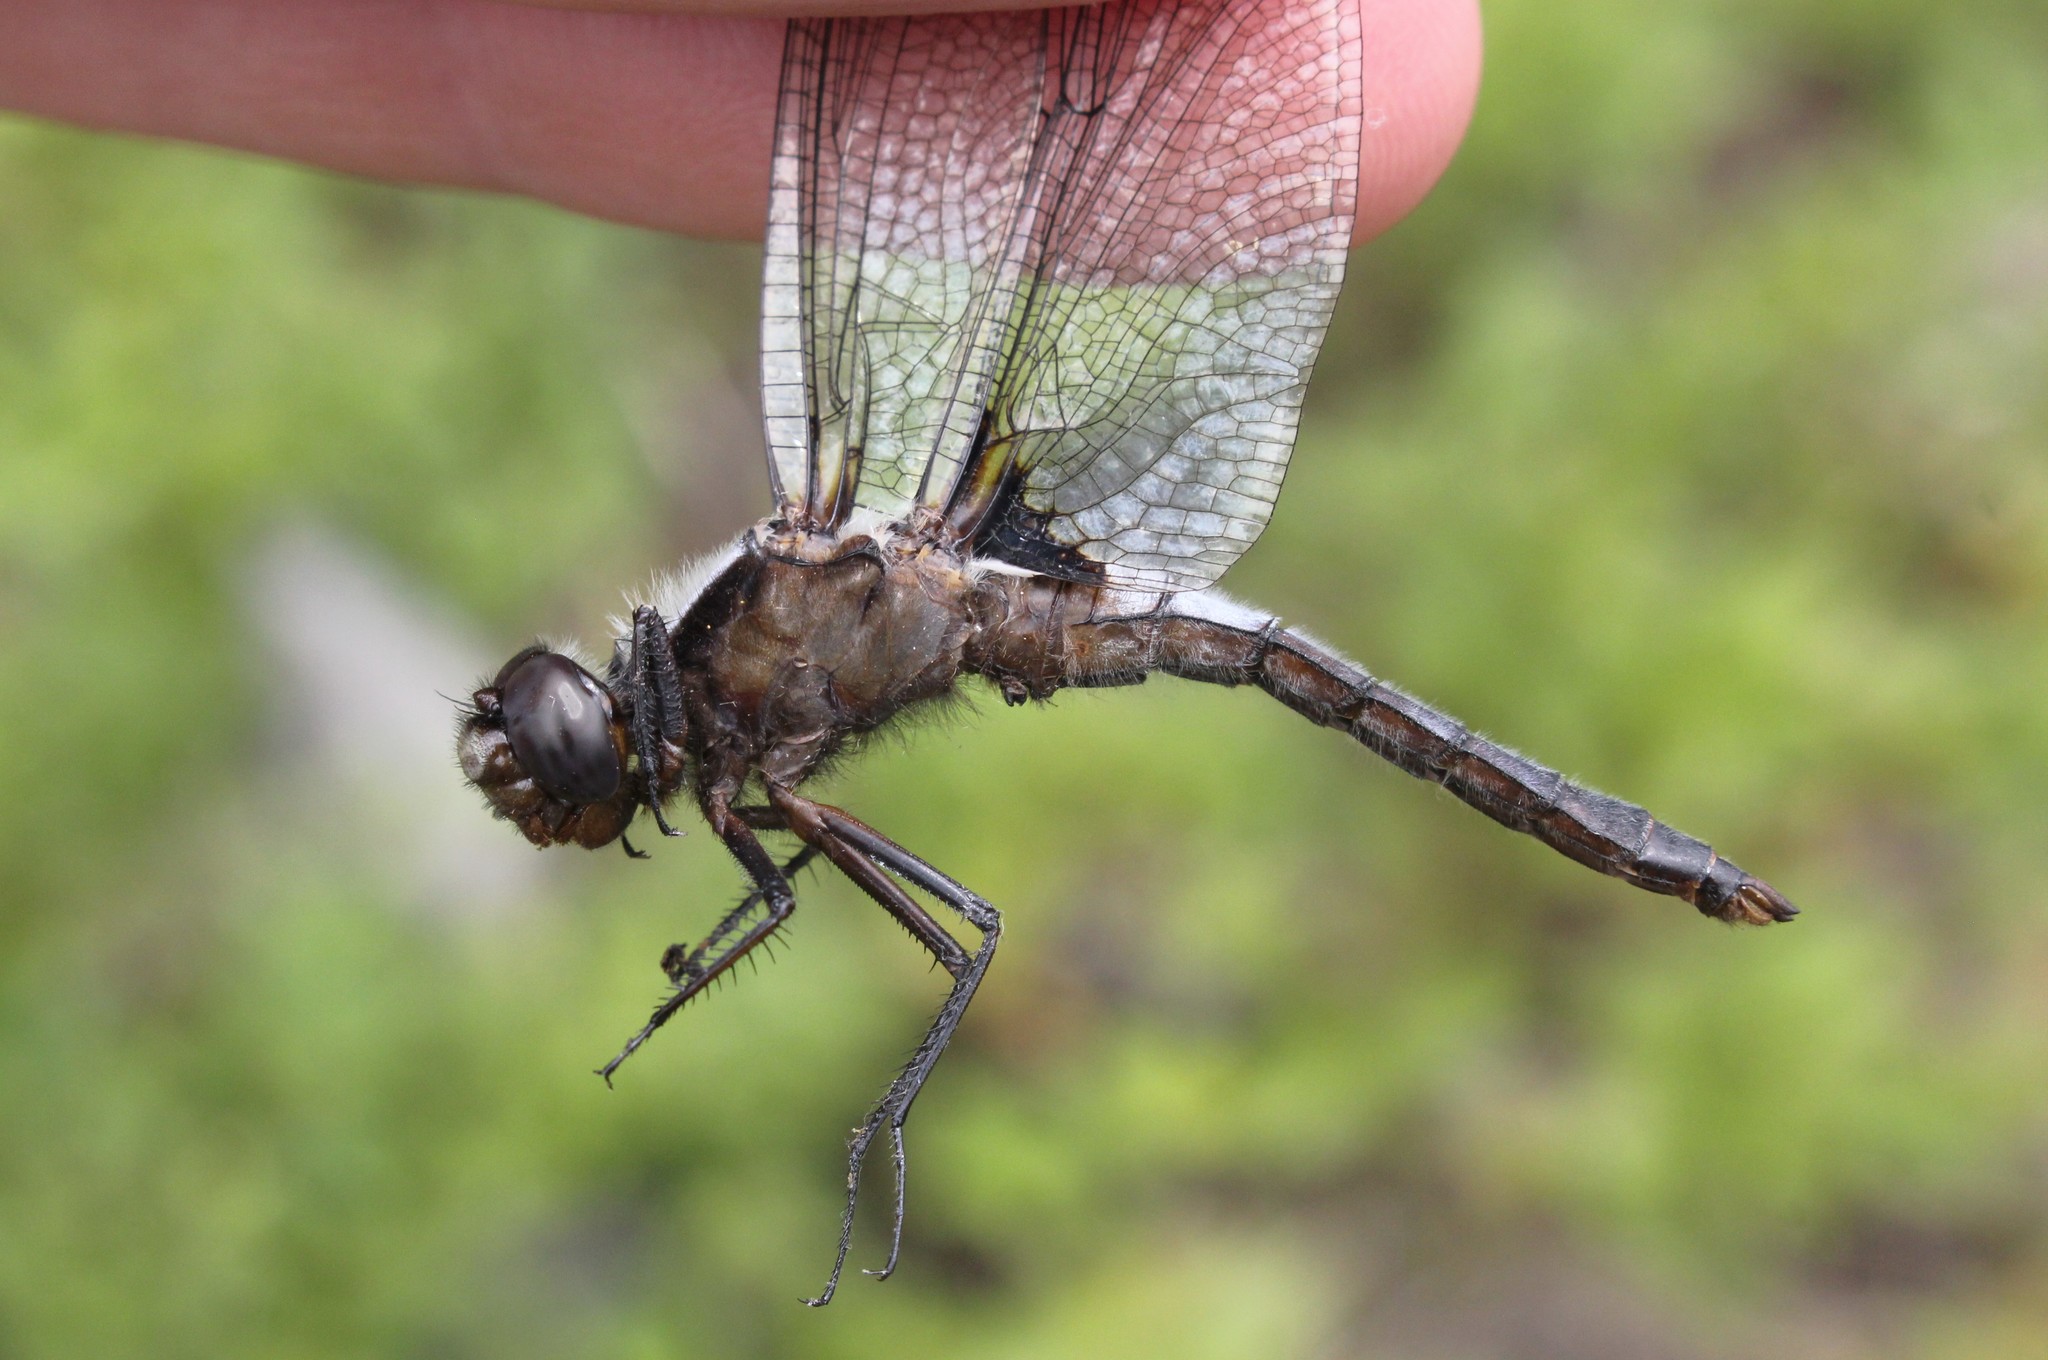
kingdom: Animalia
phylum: Arthropoda
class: Insecta
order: Odonata
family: Libellulidae
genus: Ladona
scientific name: Ladona julia
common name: Chalk-fronted corporal
